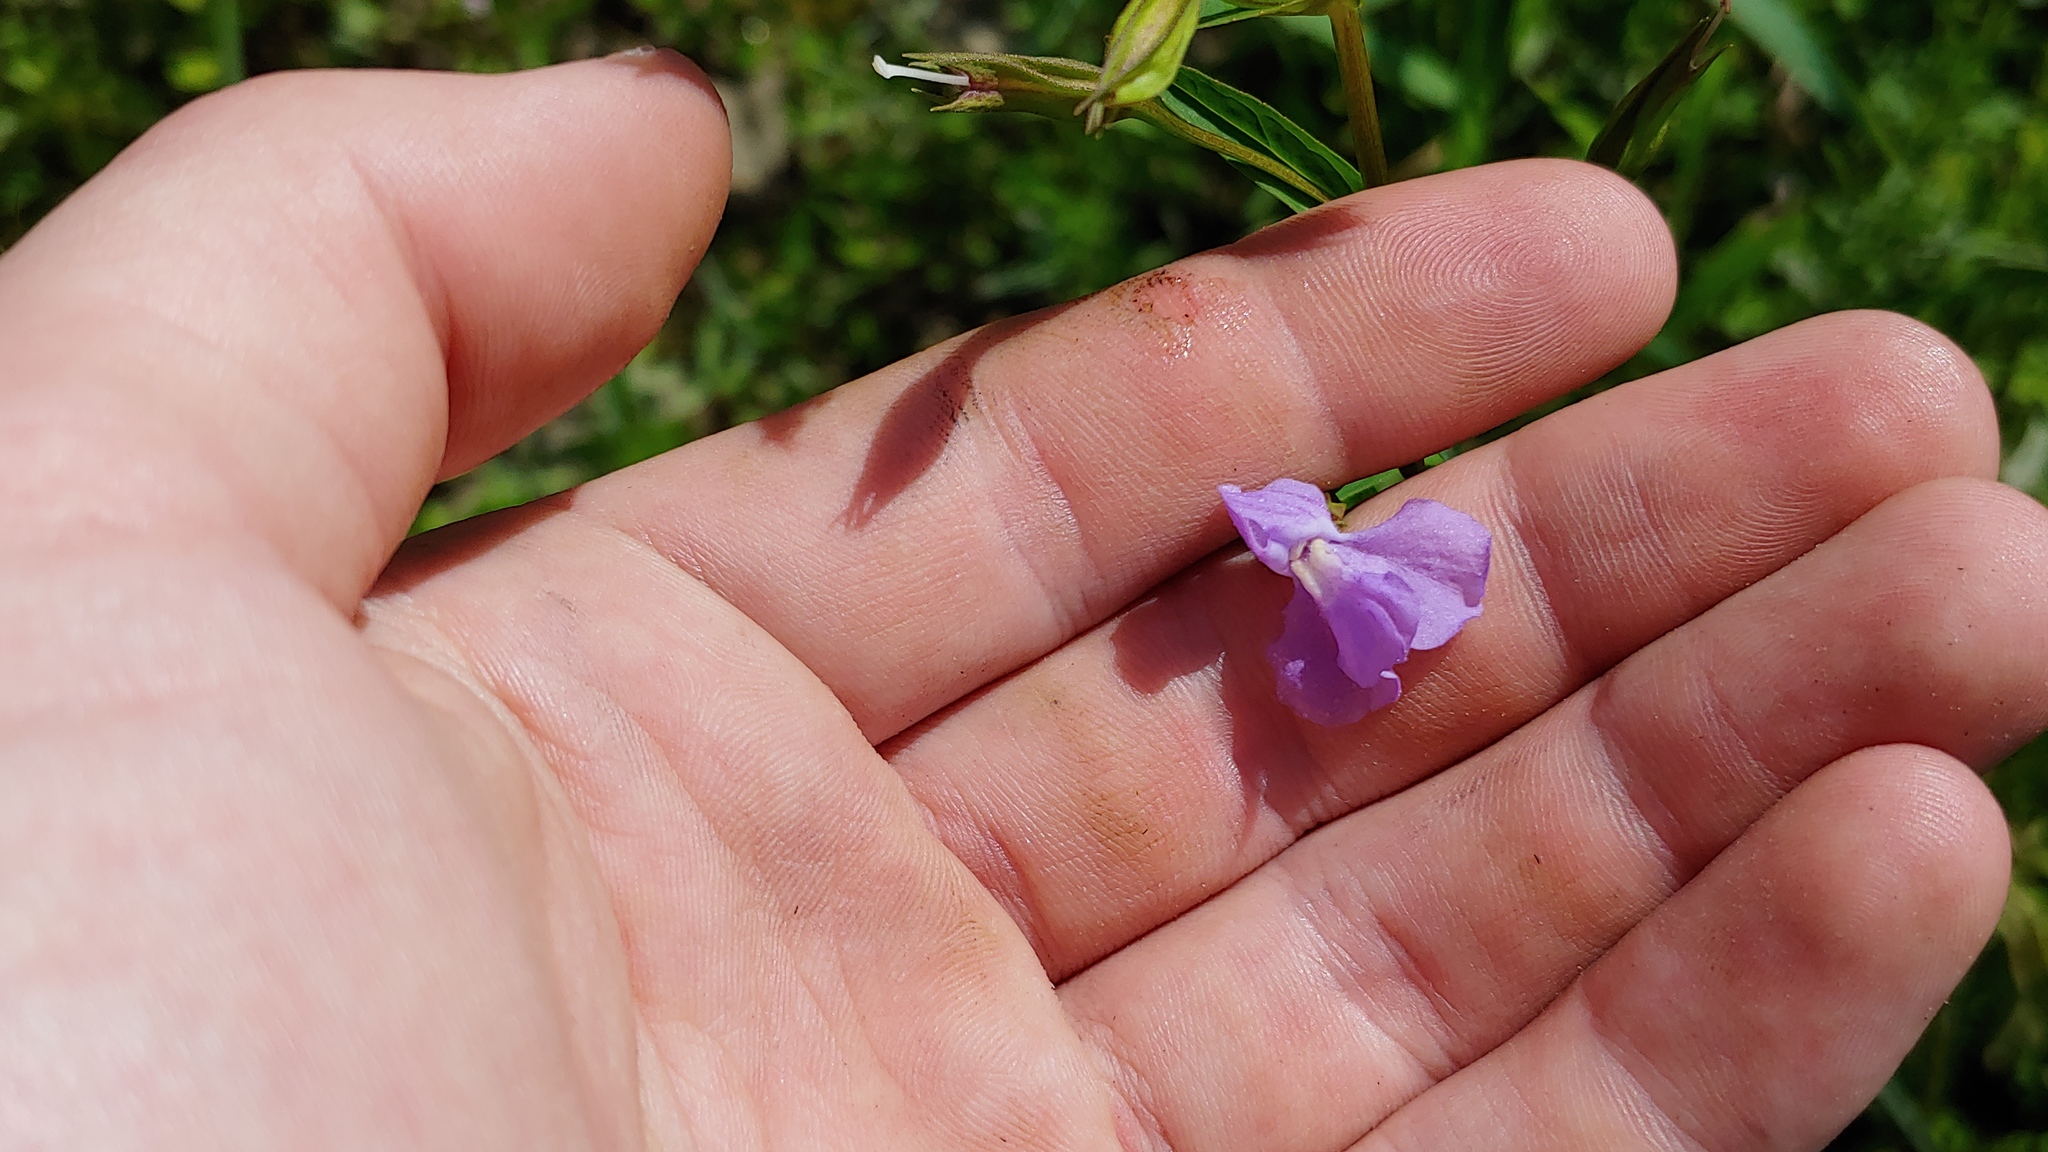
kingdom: Plantae
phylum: Tracheophyta
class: Magnoliopsida
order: Lamiales
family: Phrymaceae
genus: Mimulus
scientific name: Mimulus ringens
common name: Allegheny monkeyflower
